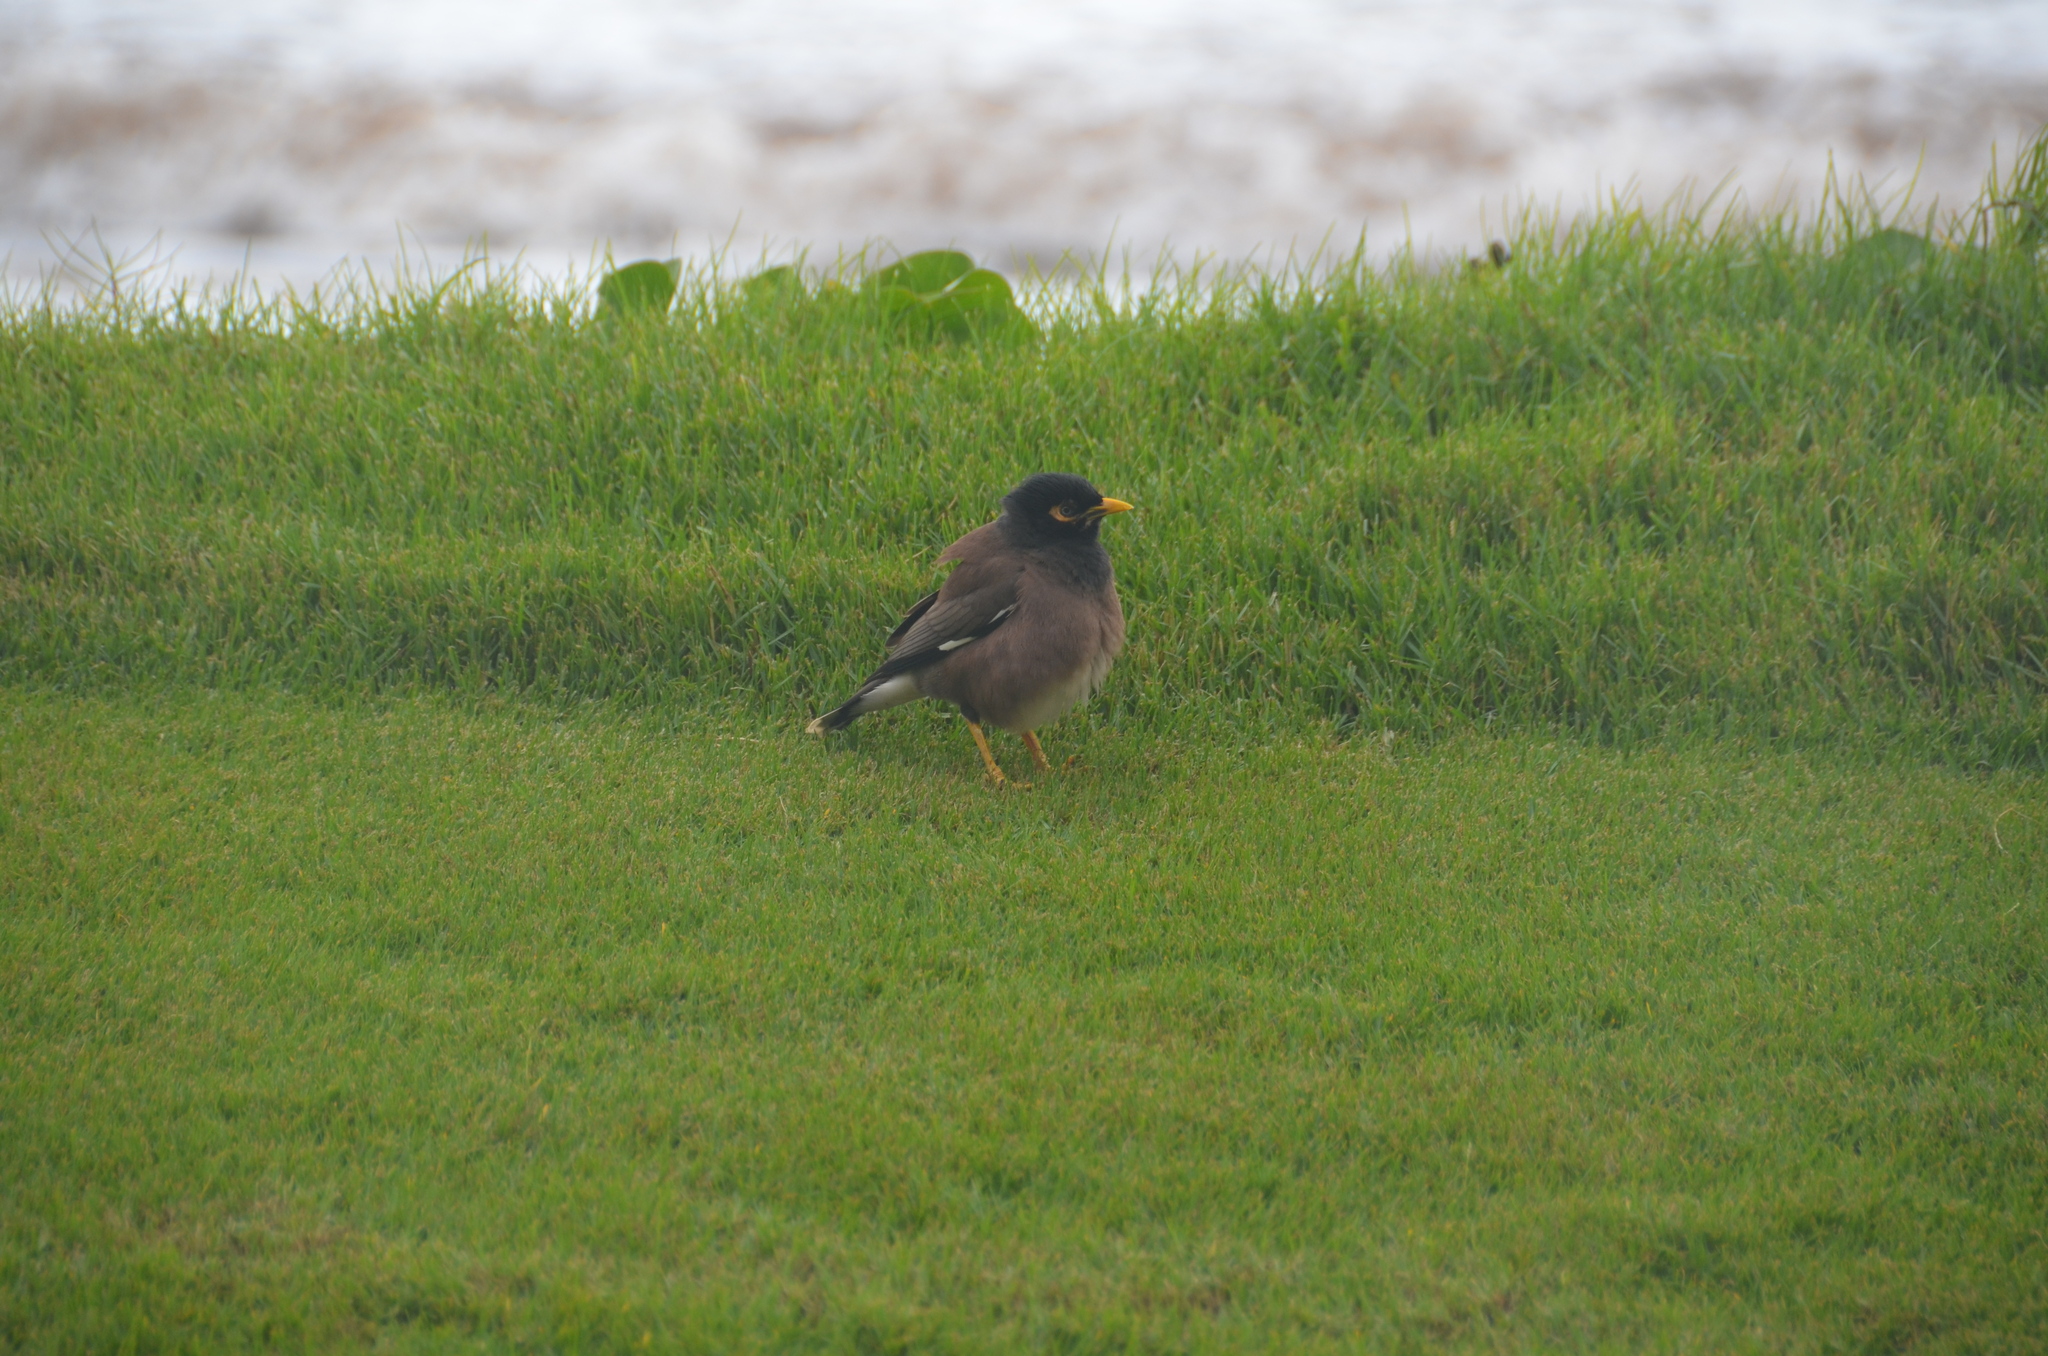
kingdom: Animalia
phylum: Chordata
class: Aves
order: Passeriformes
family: Sturnidae
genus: Acridotheres
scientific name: Acridotheres tristis
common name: Common myna
